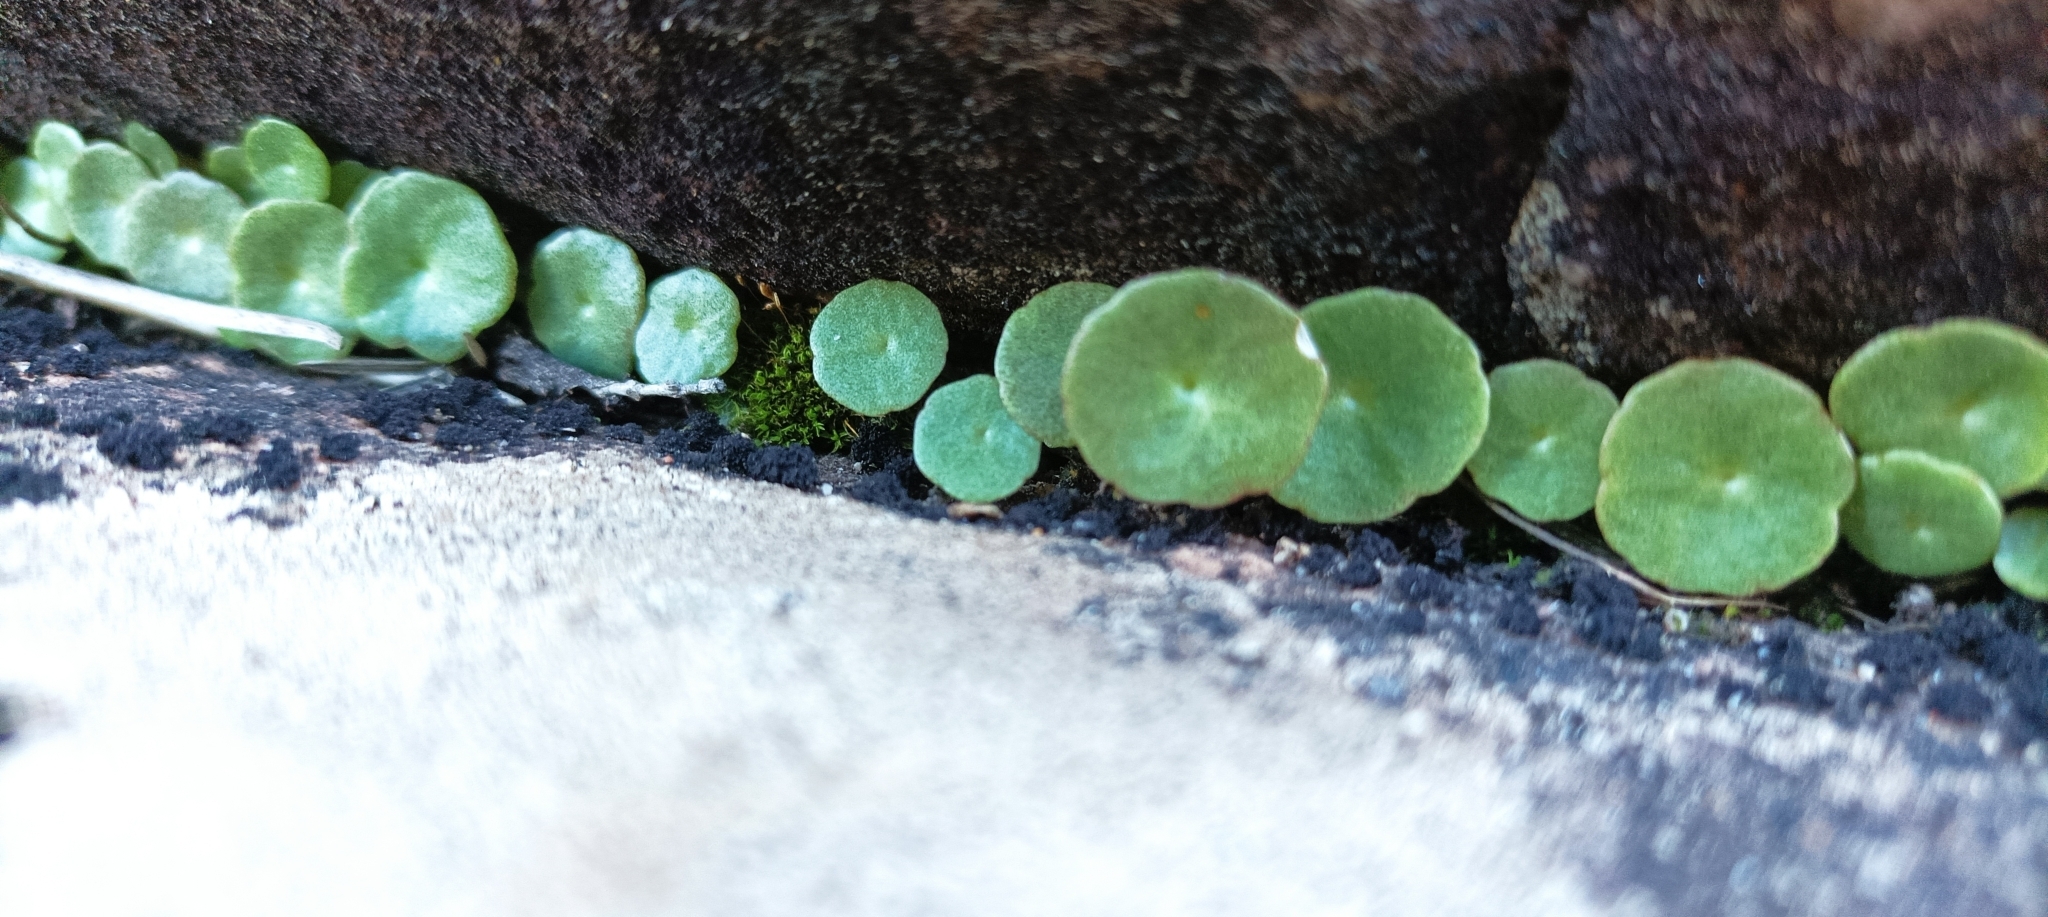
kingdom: Plantae
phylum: Tracheophyta
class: Magnoliopsida
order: Saxifragales
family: Crassulaceae
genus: Umbilicus
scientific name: Umbilicus rupestris
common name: Navelwort
